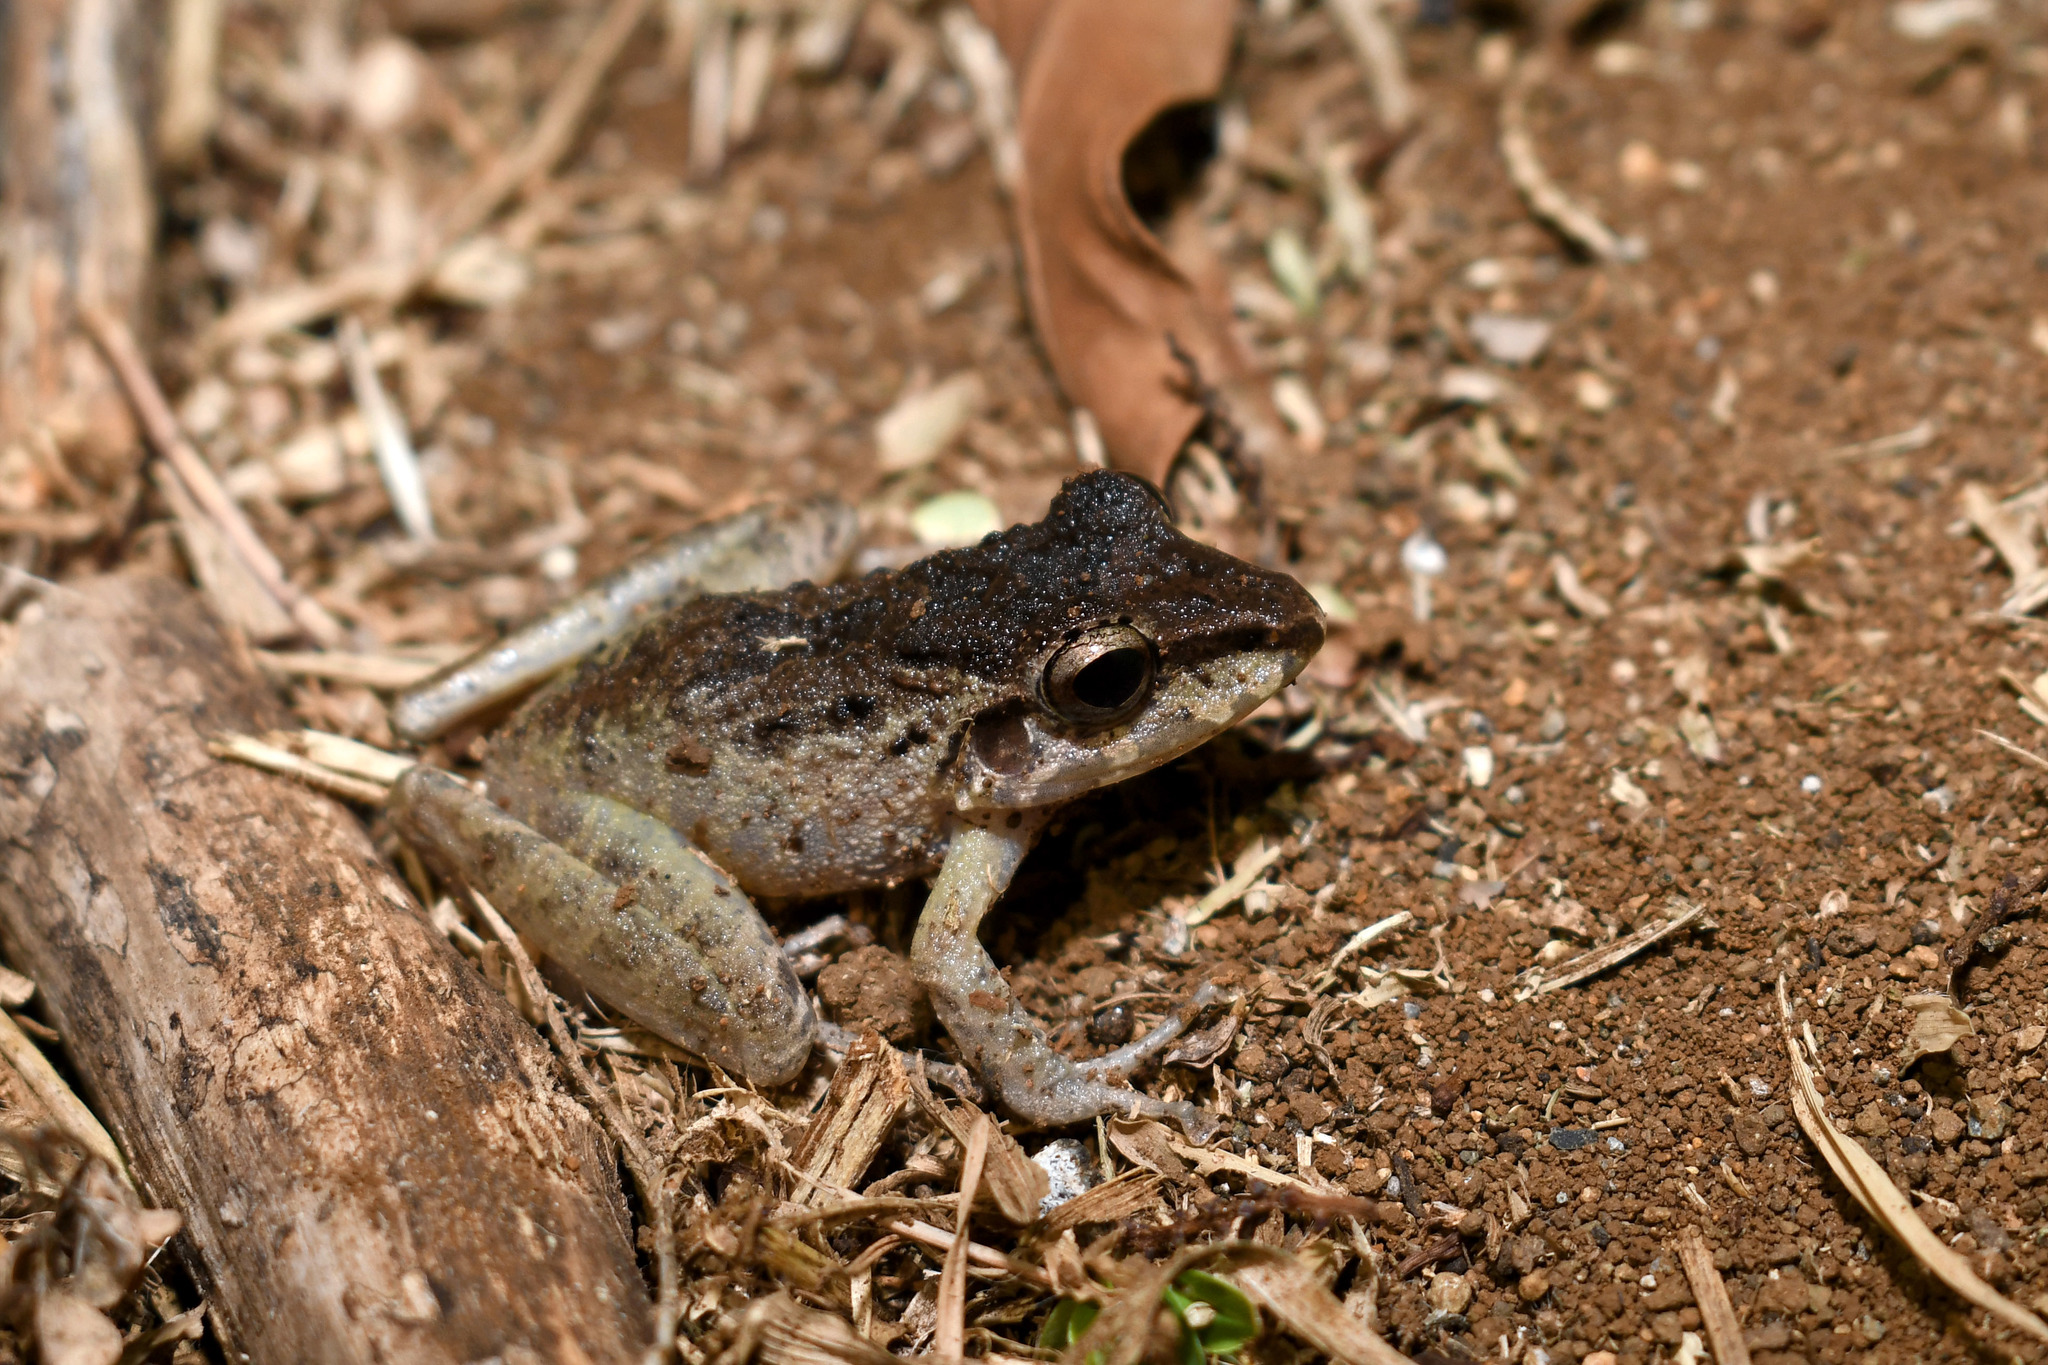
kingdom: Animalia
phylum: Chordata
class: Amphibia
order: Anura
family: Craugastoridae
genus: Craugastor
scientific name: Craugastor fitzingeri
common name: Fitzinger's robber frog
